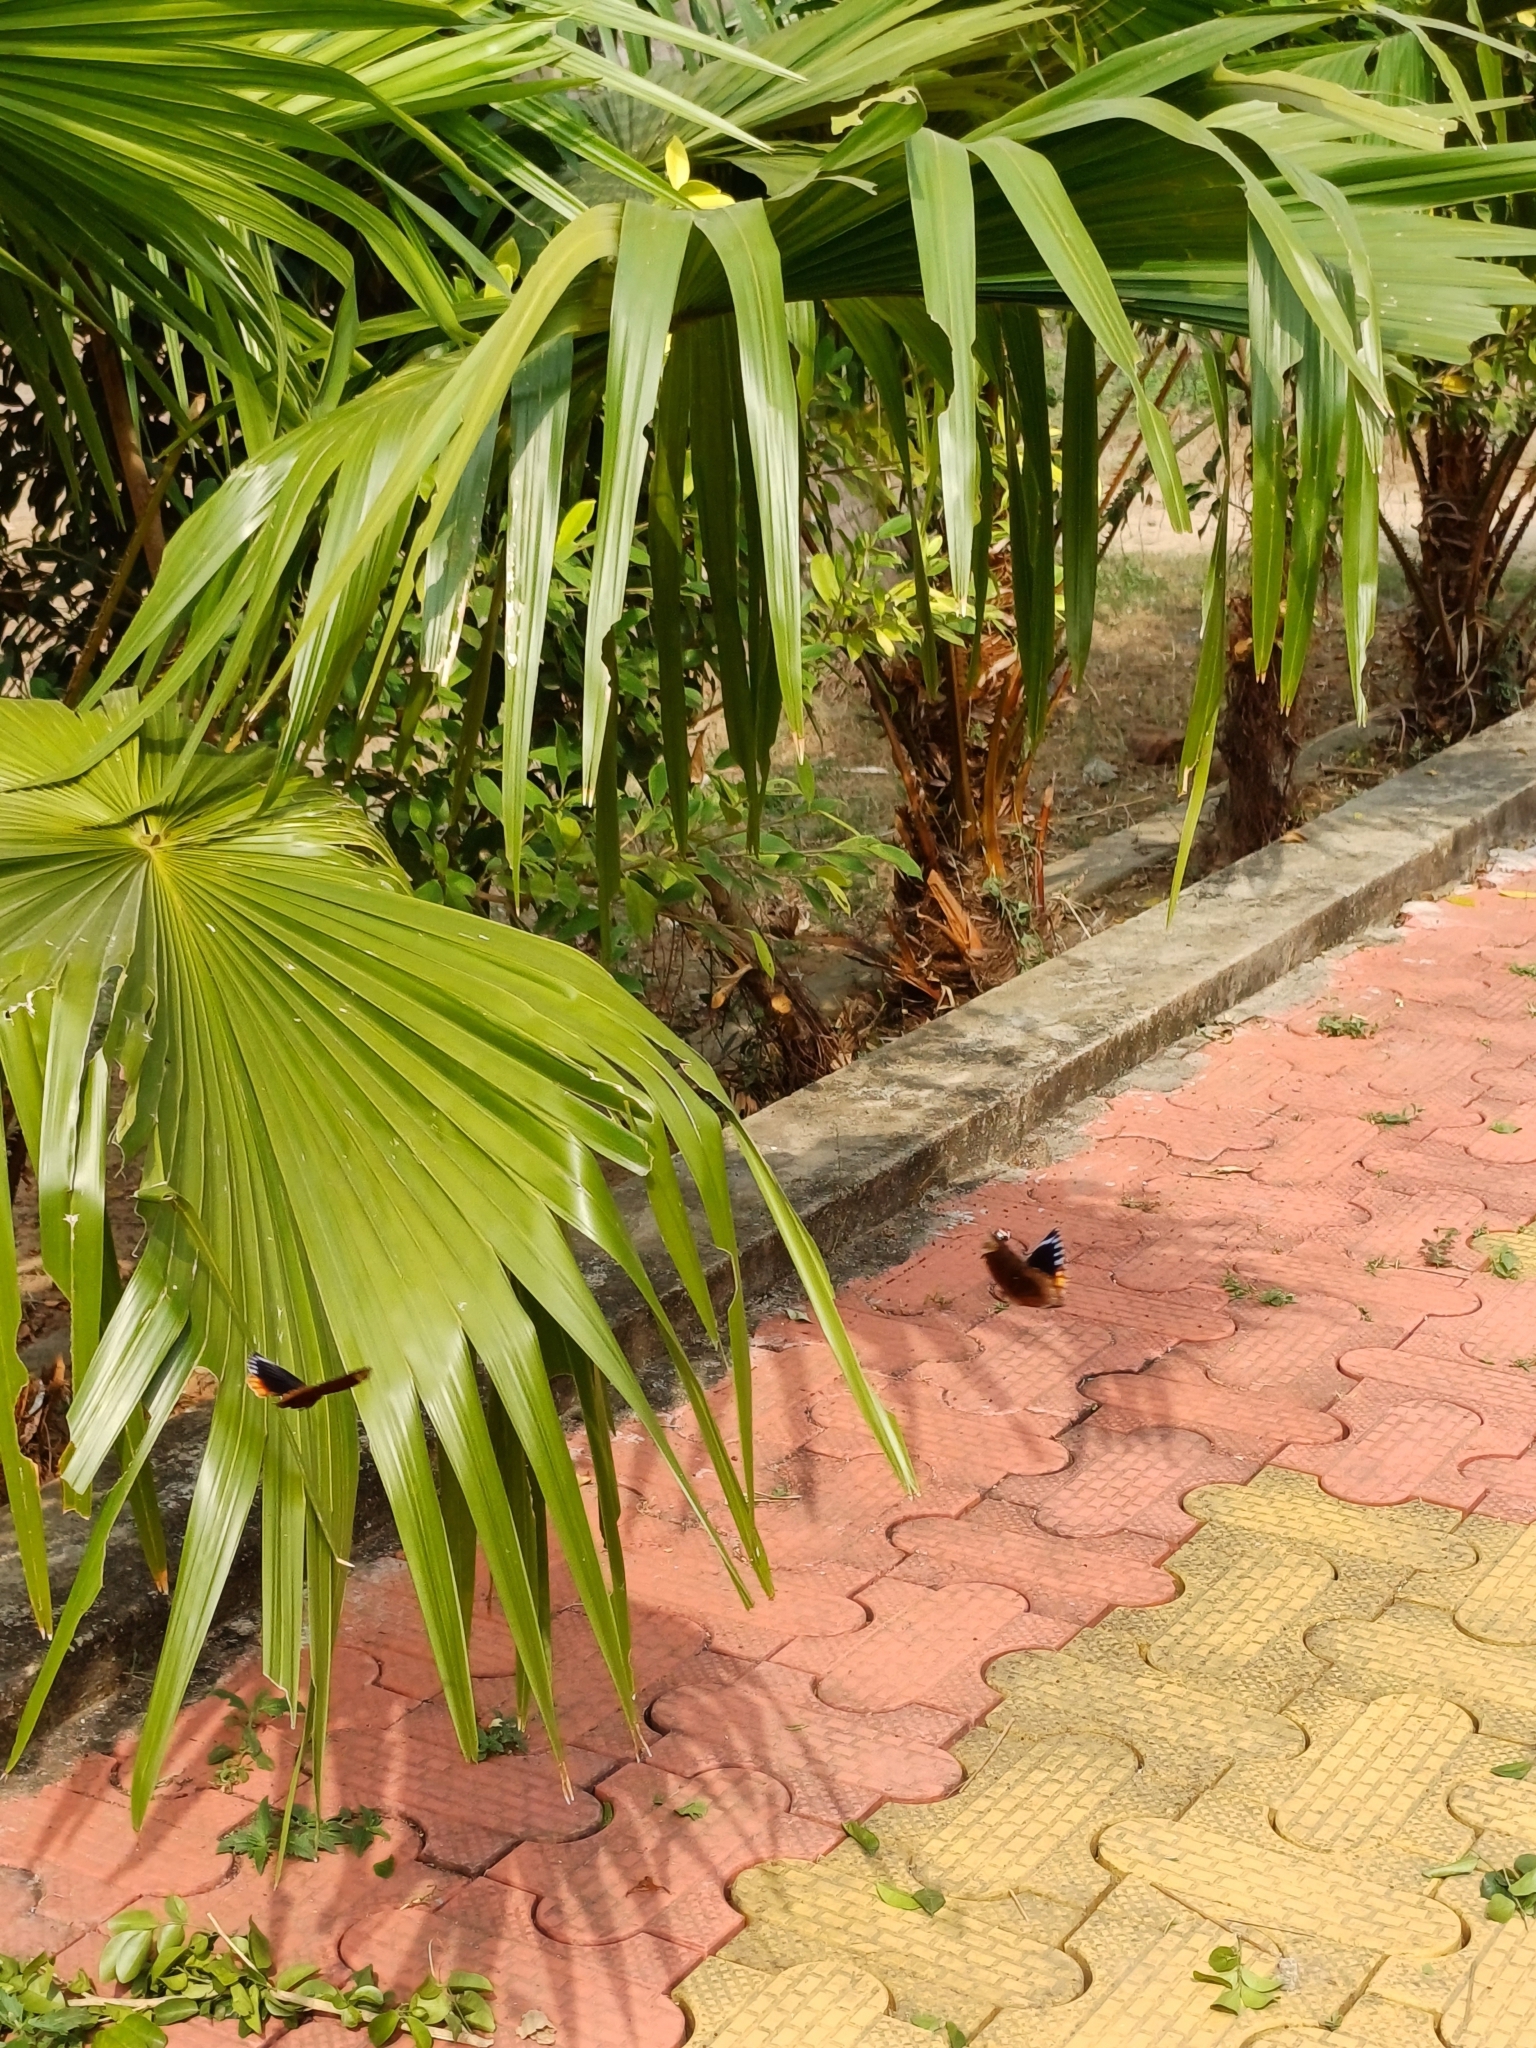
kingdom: Animalia
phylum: Arthropoda
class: Insecta
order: Lepidoptera
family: Nymphalidae
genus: Elymnias
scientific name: Elymnias hypermnestra
